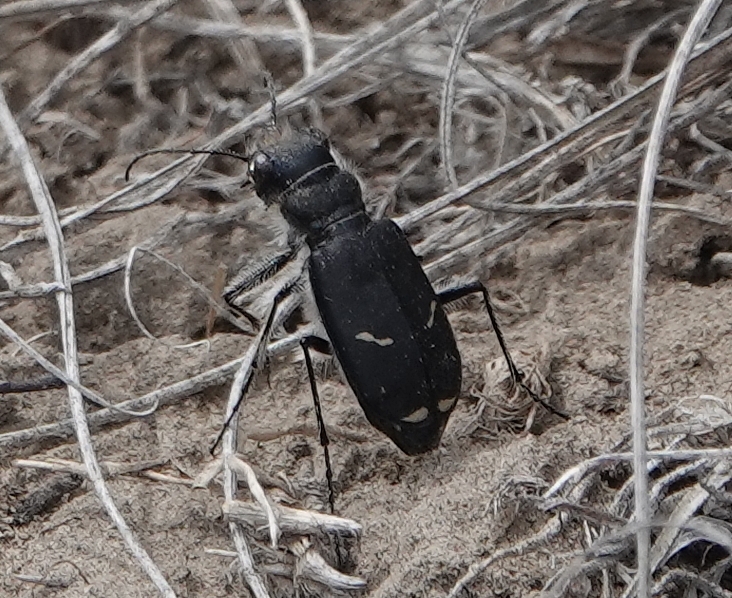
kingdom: Animalia
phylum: Arthropoda
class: Insecta
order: Coleoptera
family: Carabidae
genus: Cicindela
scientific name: Cicindela purpurea
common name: Cow path tiger beetle
